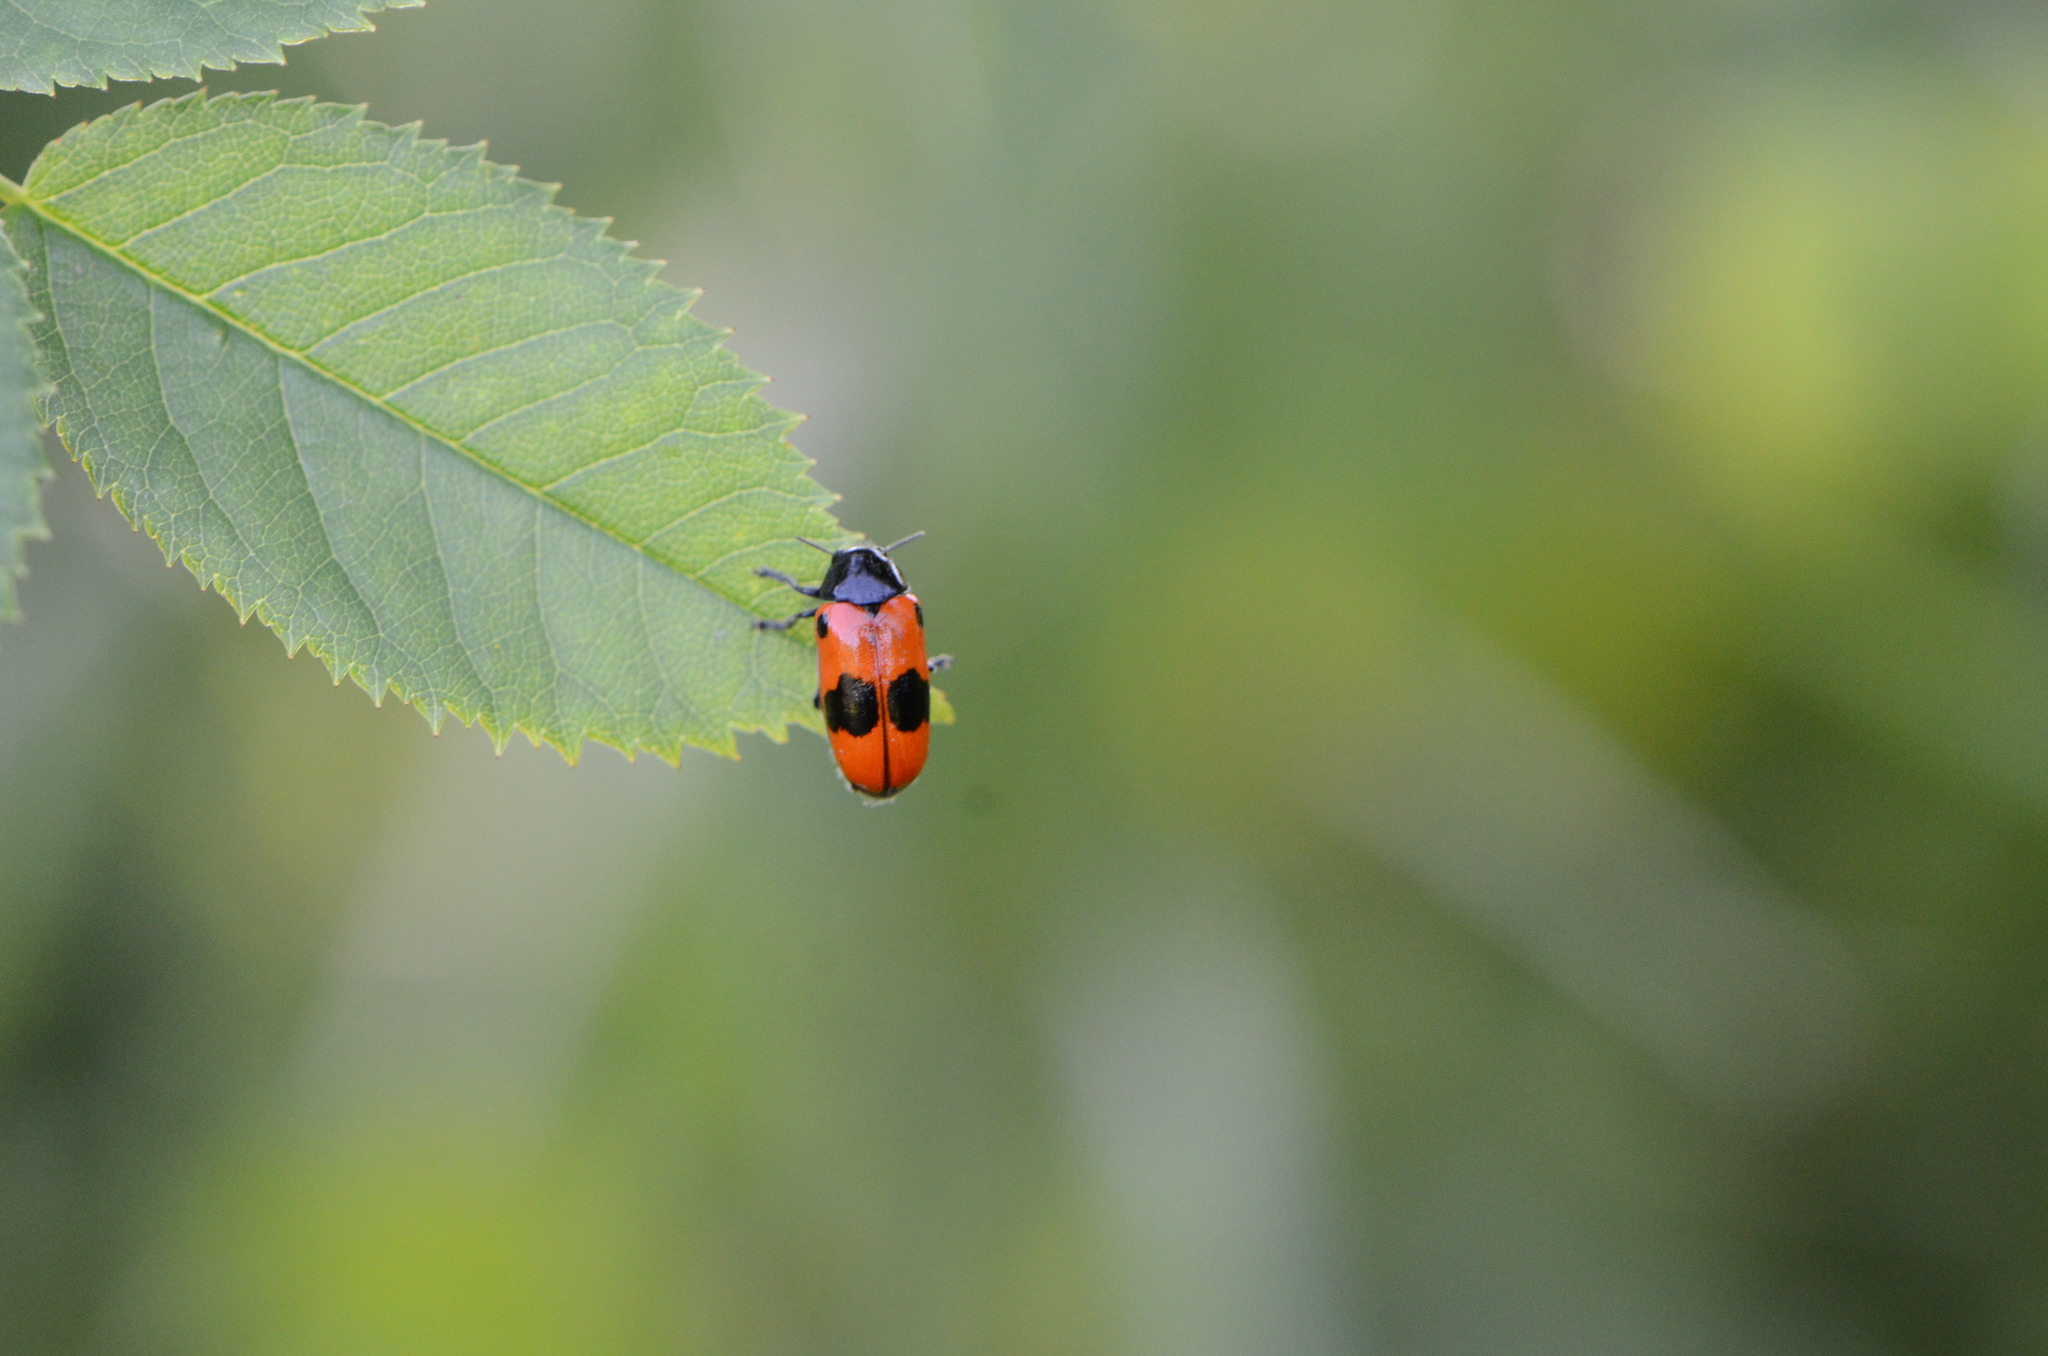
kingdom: Animalia
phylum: Arthropoda
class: Insecta
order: Coleoptera
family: Chrysomelidae
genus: Clytra
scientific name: Clytra laeviuscula
